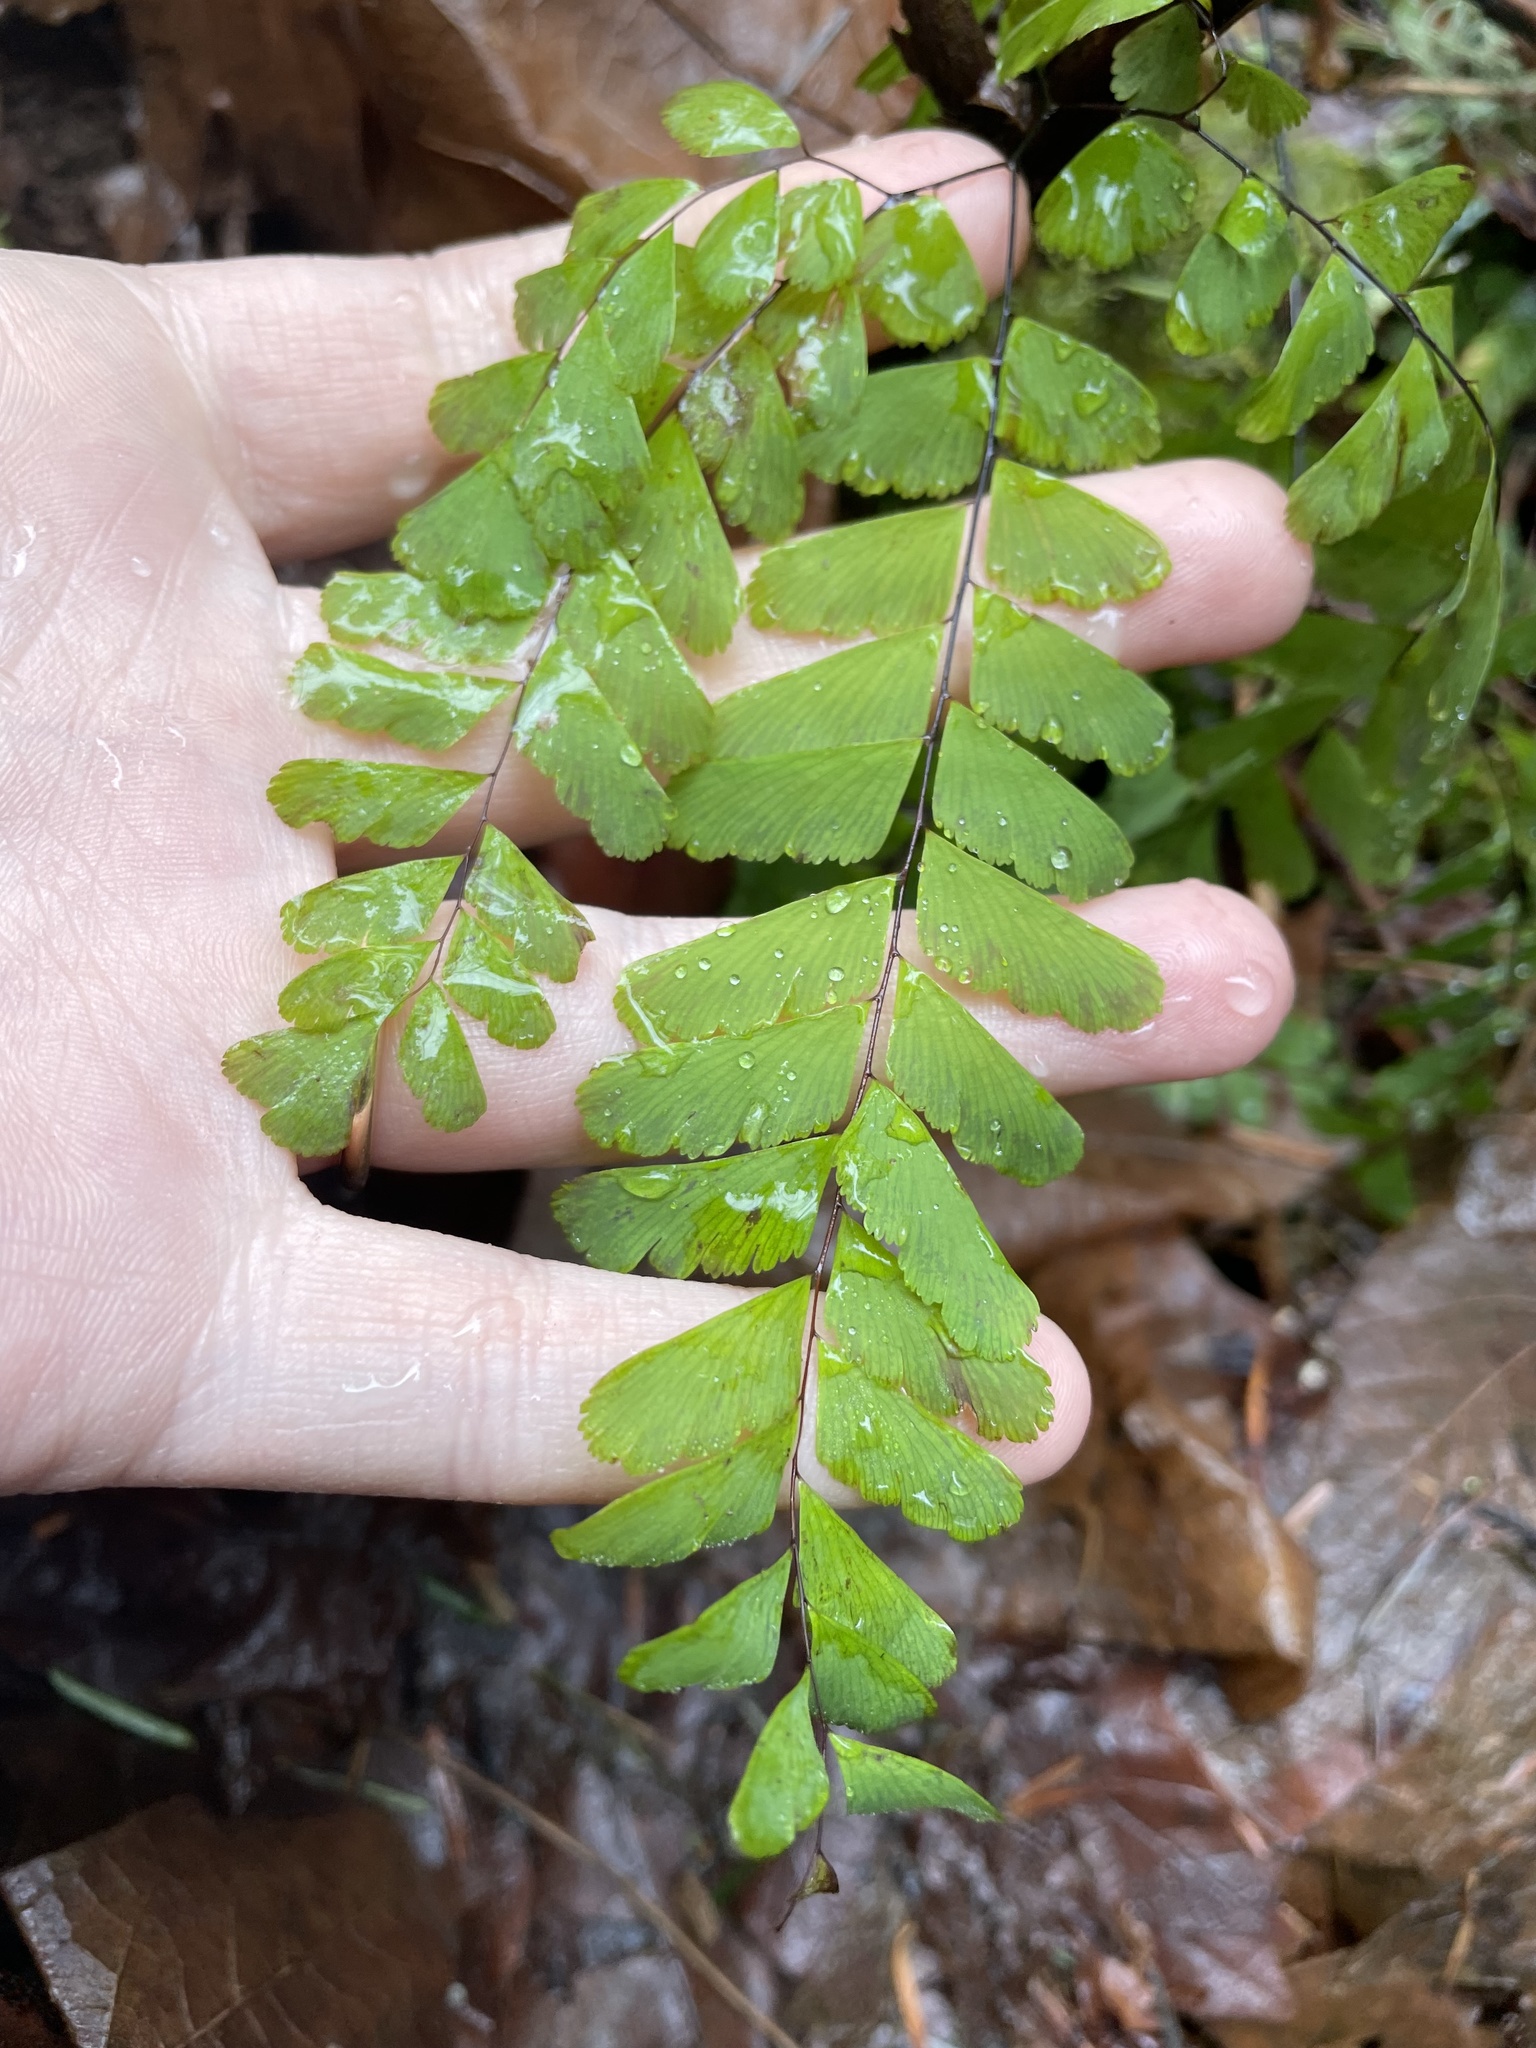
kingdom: Plantae
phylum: Tracheophyta
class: Polypodiopsida
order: Polypodiales
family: Pteridaceae
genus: Adiantum
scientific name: Adiantum aleuticum
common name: Aleutian maidenhair fern
